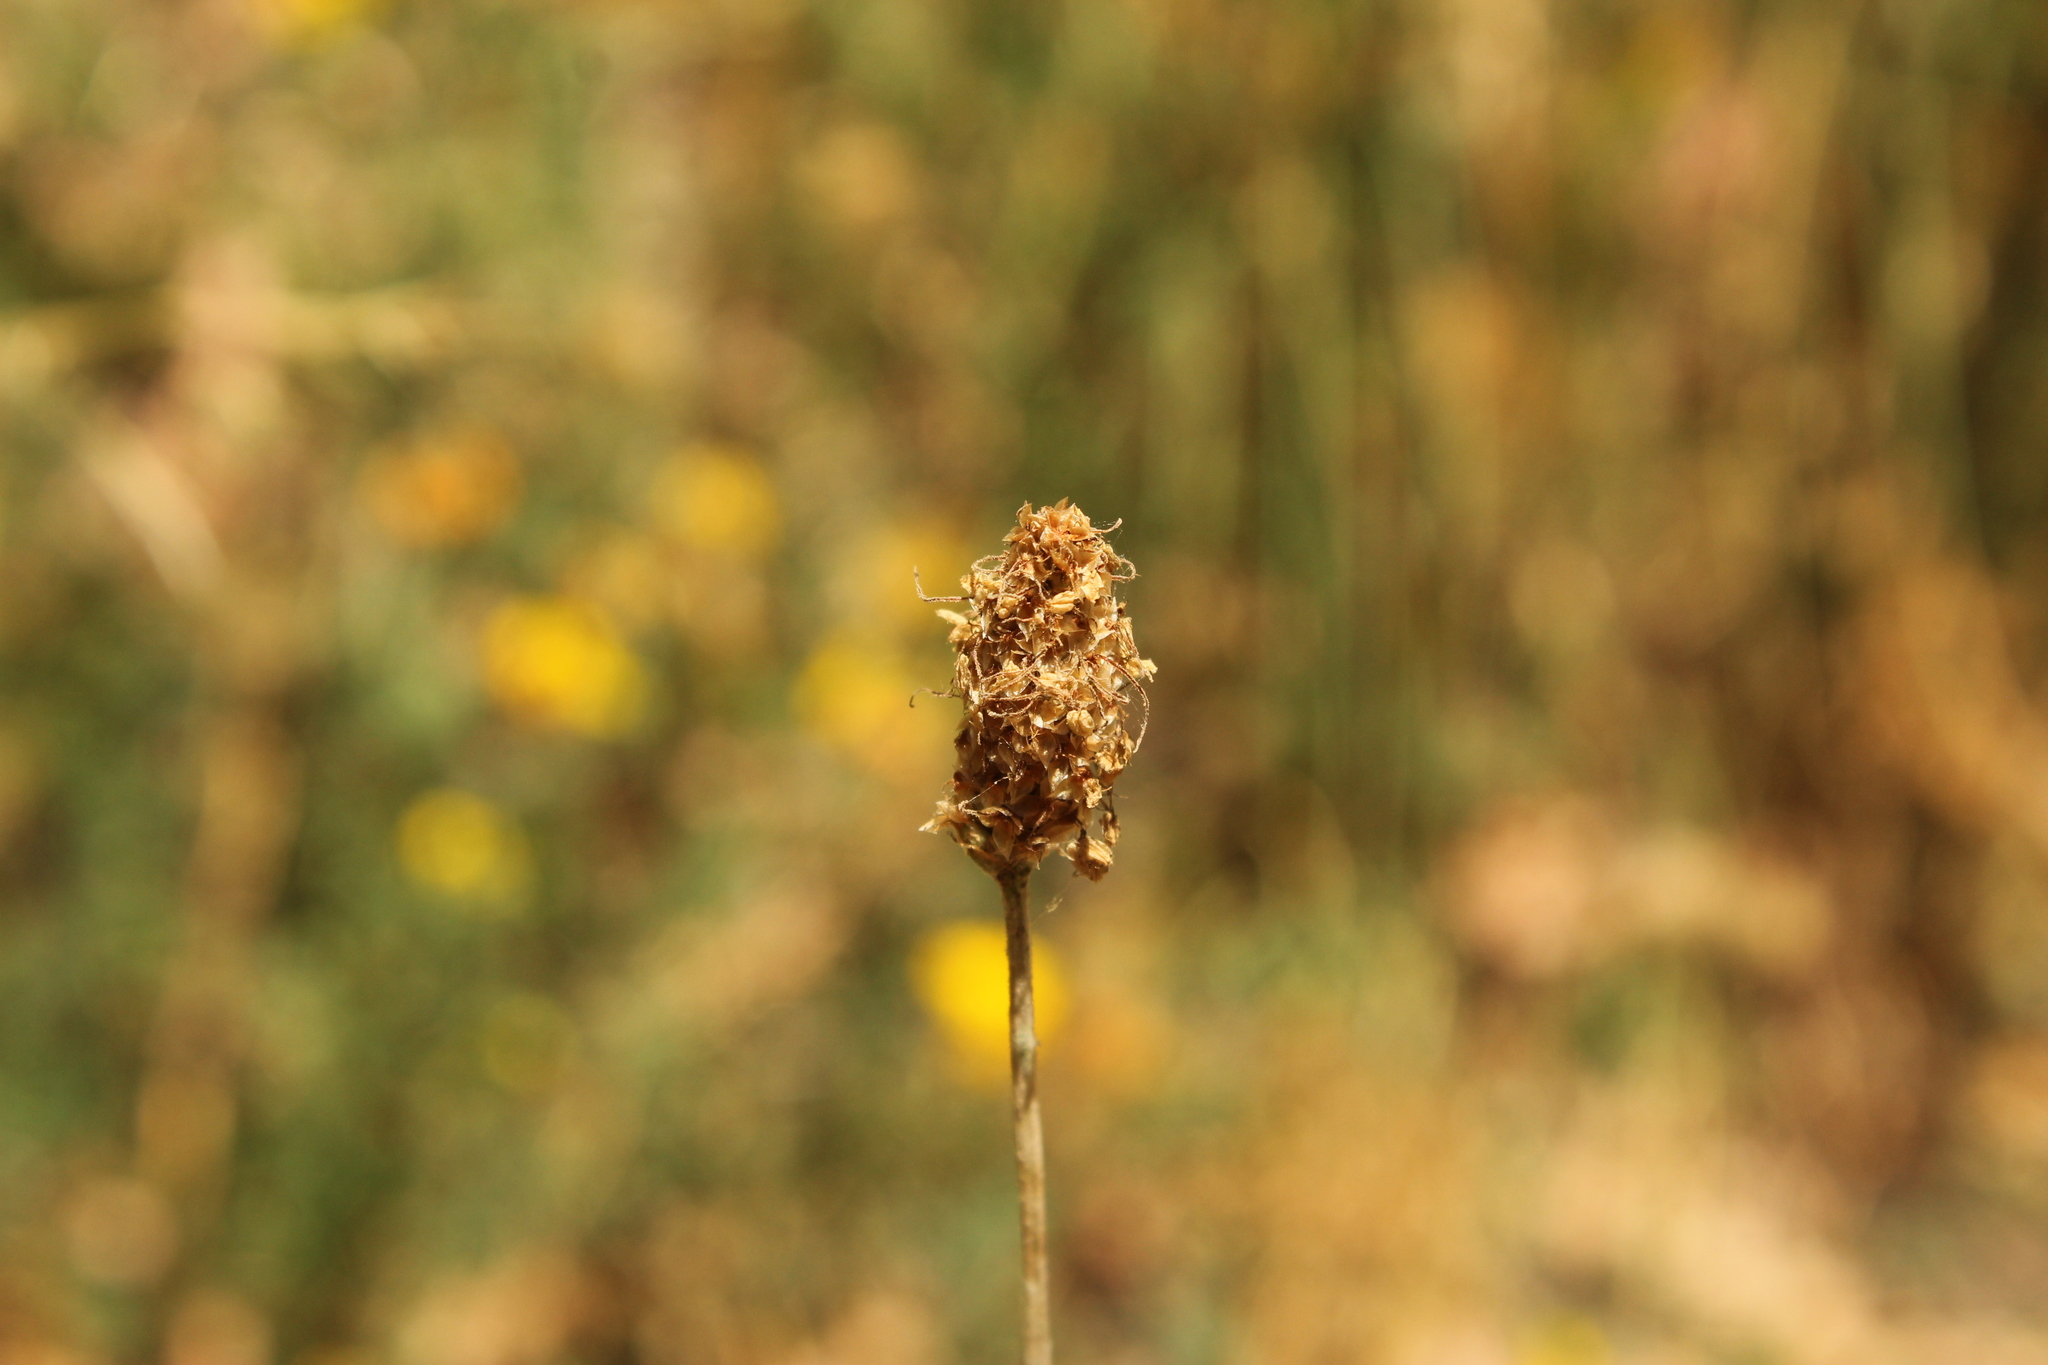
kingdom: Plantae
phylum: Tracheophyta
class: Magnoliopsida
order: Lamiales
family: Plantaginaceae
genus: Plantago
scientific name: Plantago lanceolata
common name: Ribwort plantain
